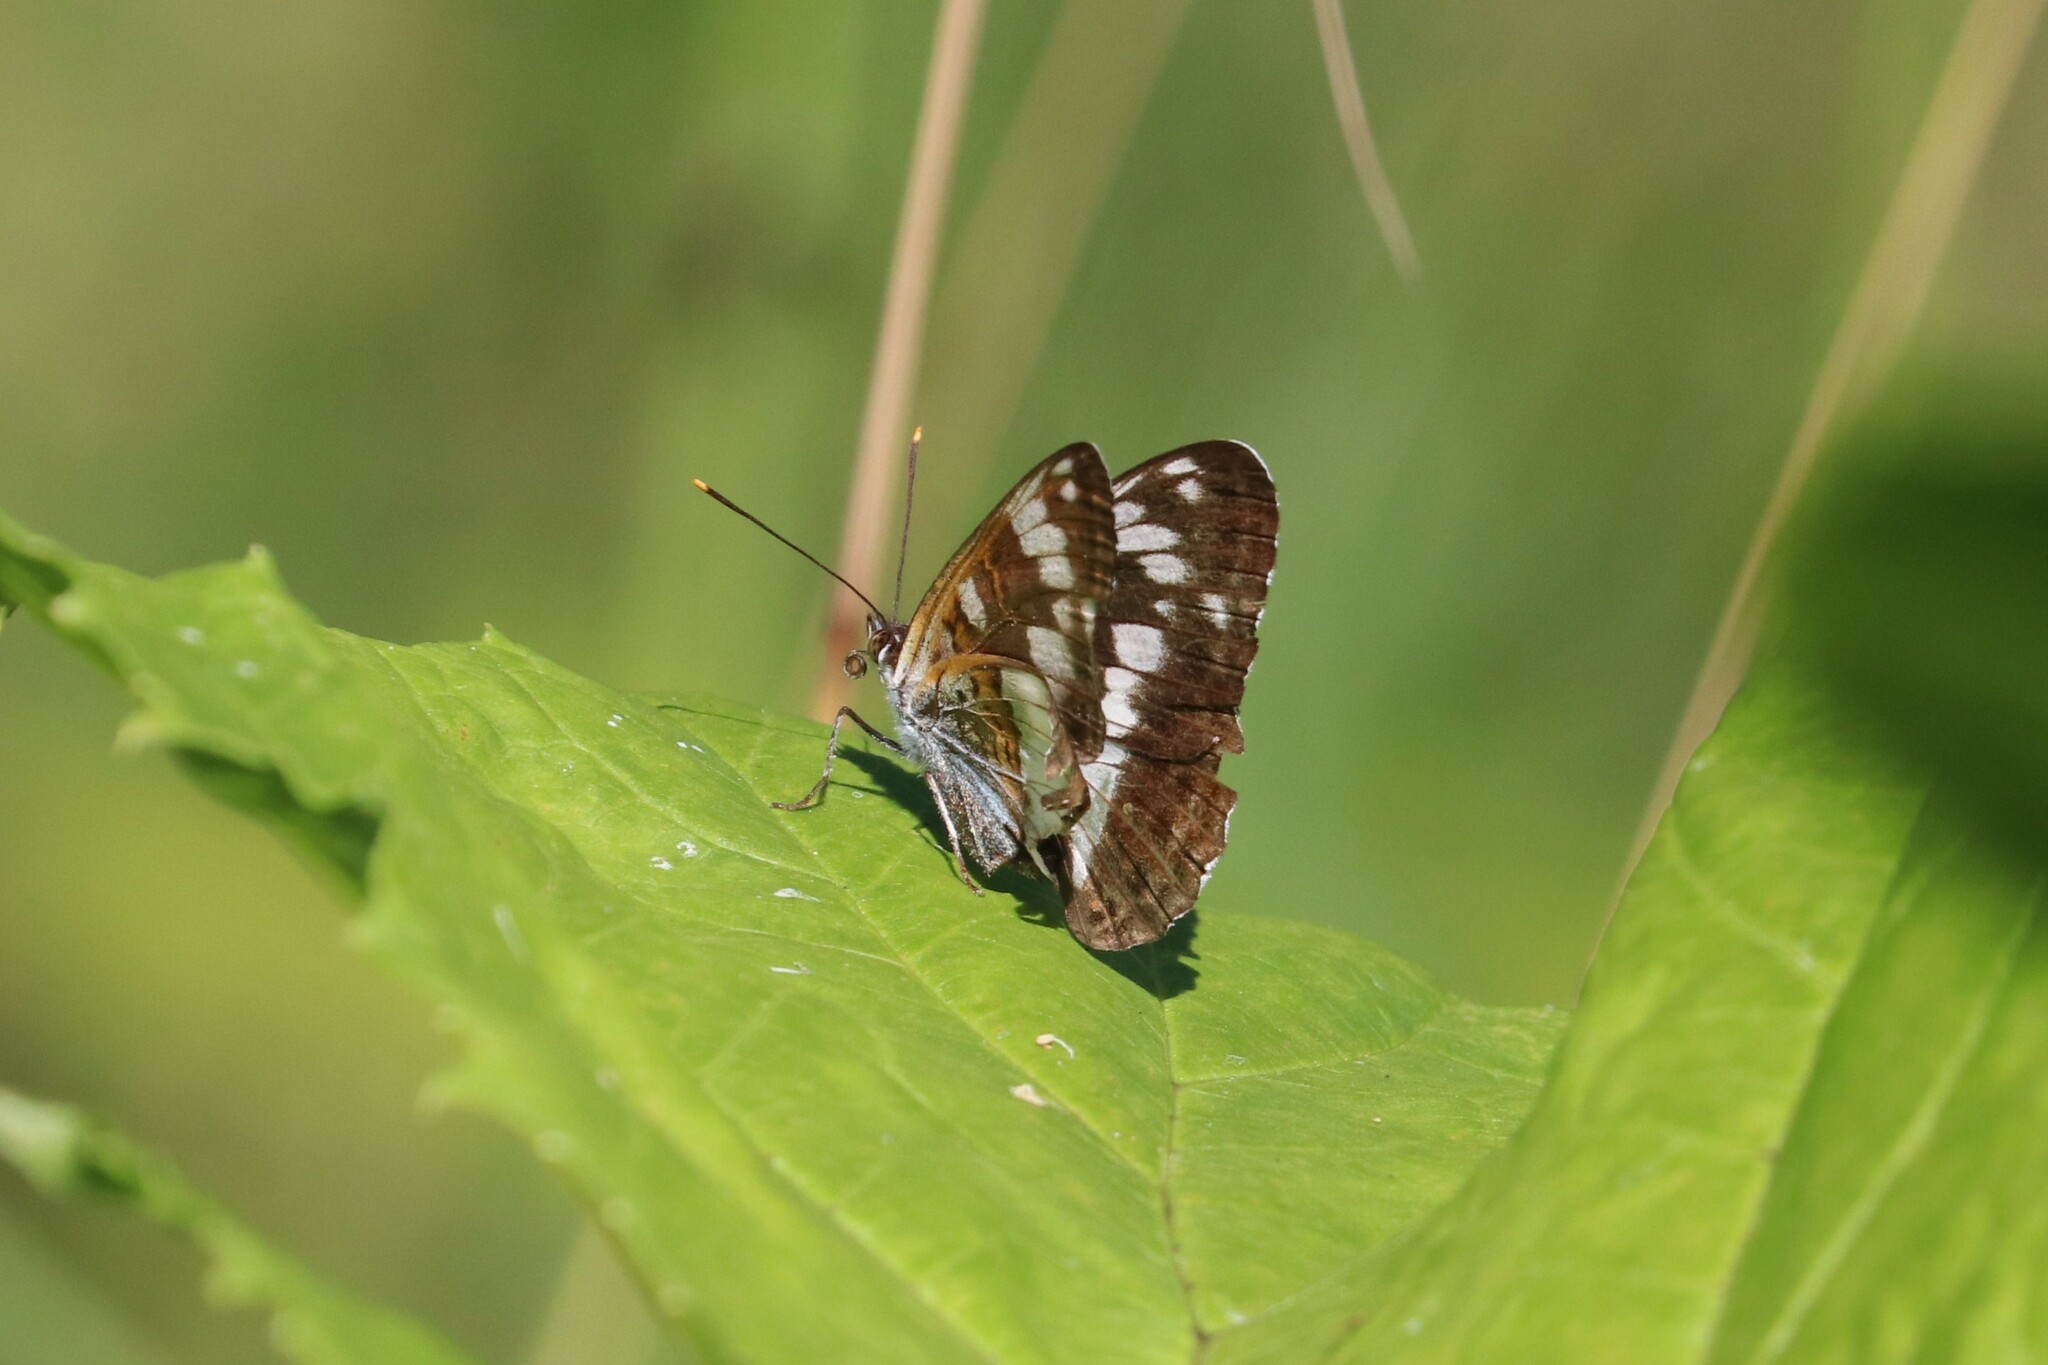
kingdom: Animalia
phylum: Arthropoda
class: Insecta
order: Lepidoptera
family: Nymphalidae
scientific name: Nymphalidae
